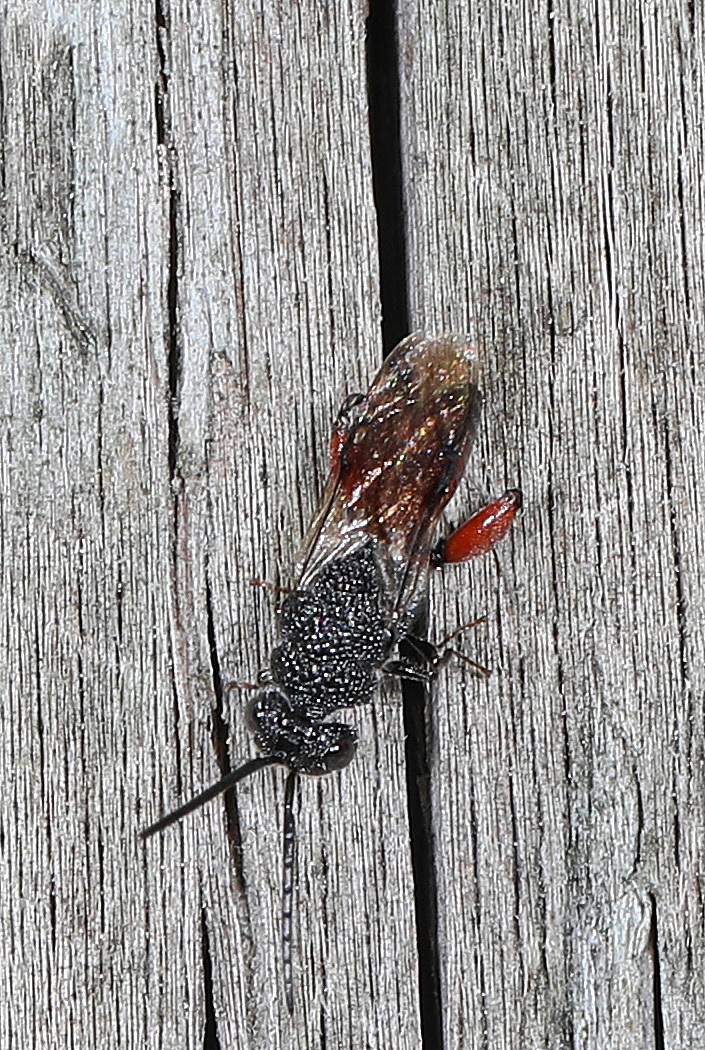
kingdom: Animalia
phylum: Arthropoda
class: Insecta
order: Hymenoptera
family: Chalcididae
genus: Phasgonophora
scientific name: Phasgonophora sulcata
